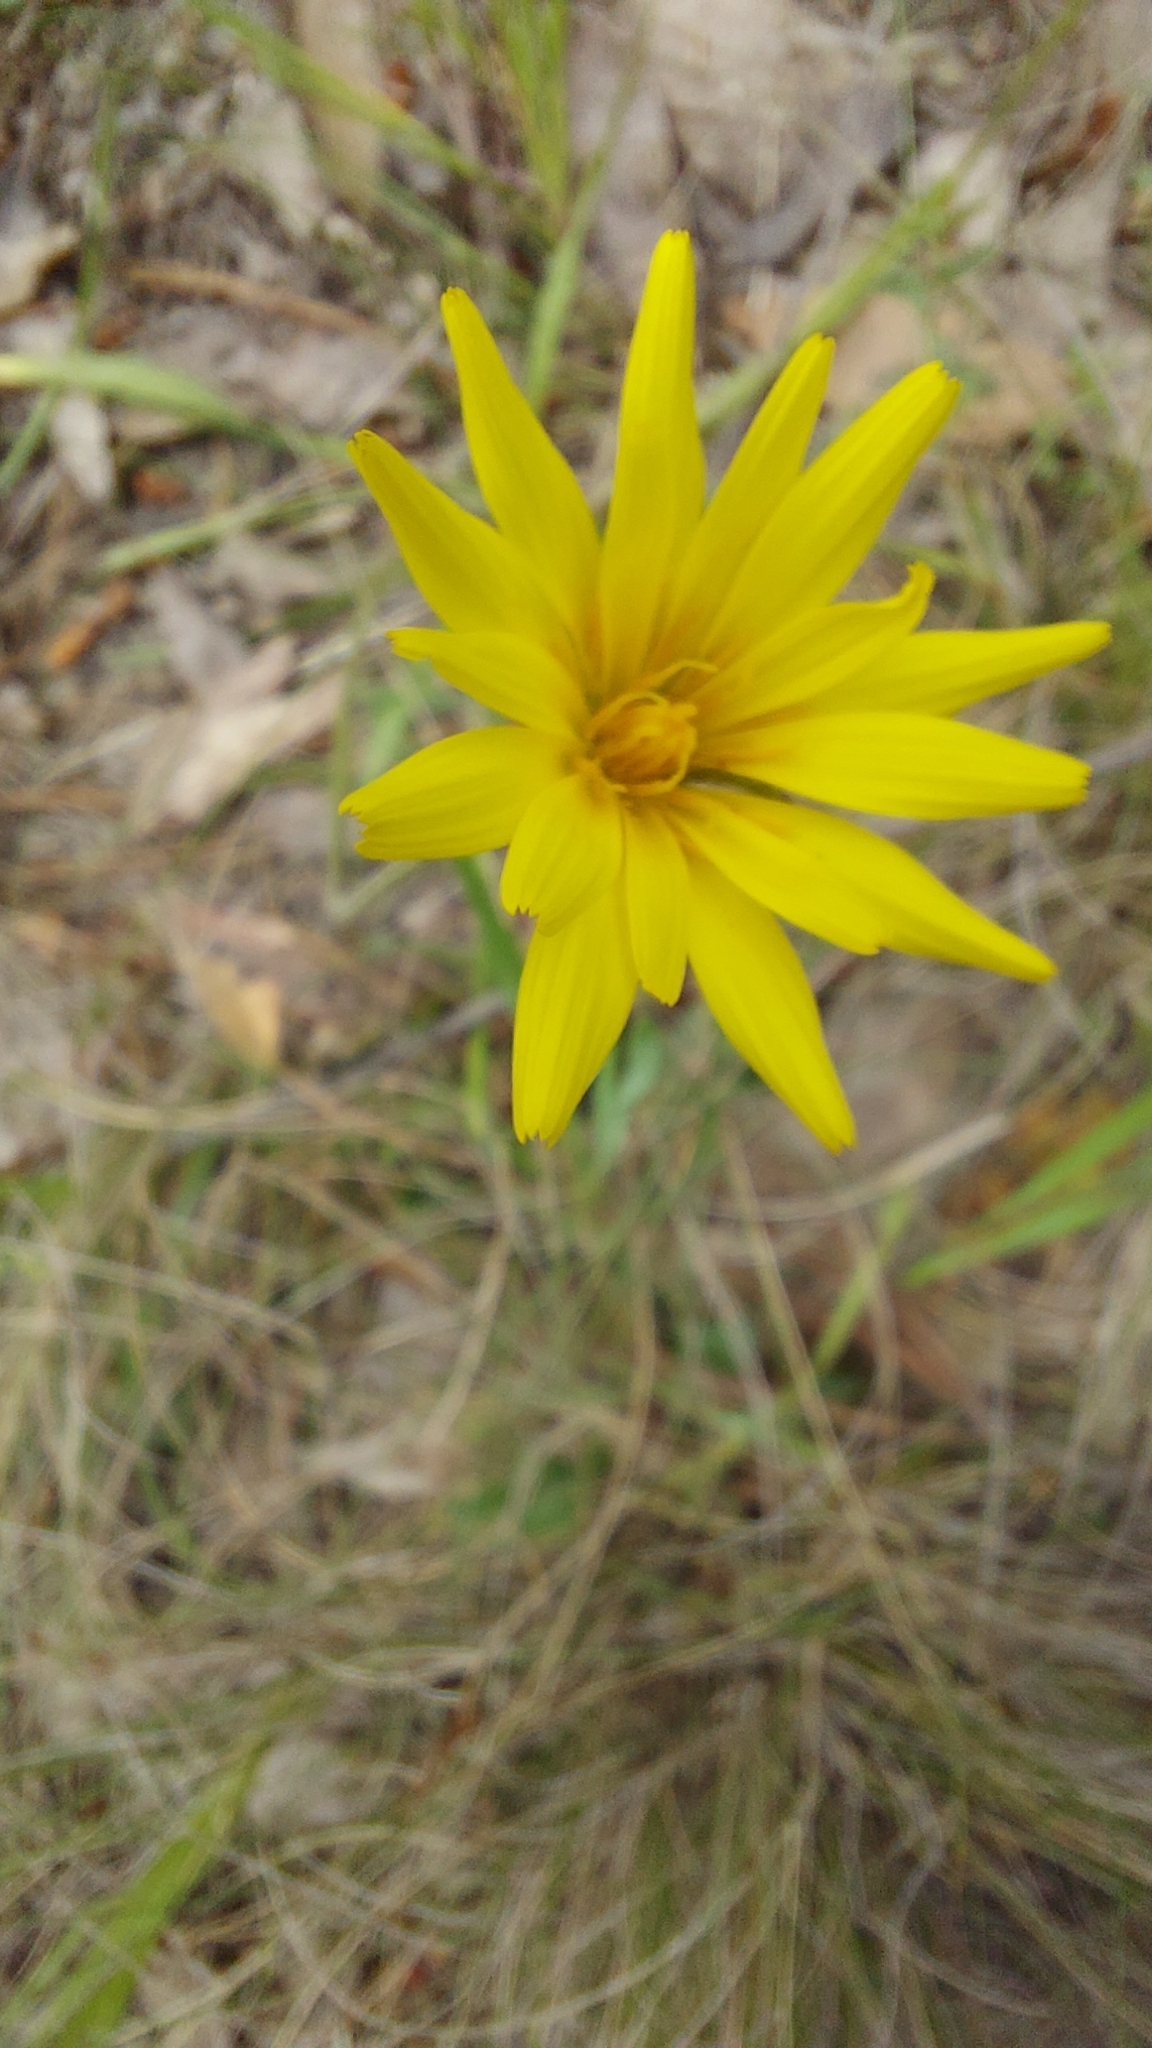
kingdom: Plantae
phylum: Tracheophyta
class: Magnoliopsida
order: Asterales
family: Asteraceae
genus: Microseris
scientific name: Microseris lanceolata
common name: Yam daisy
